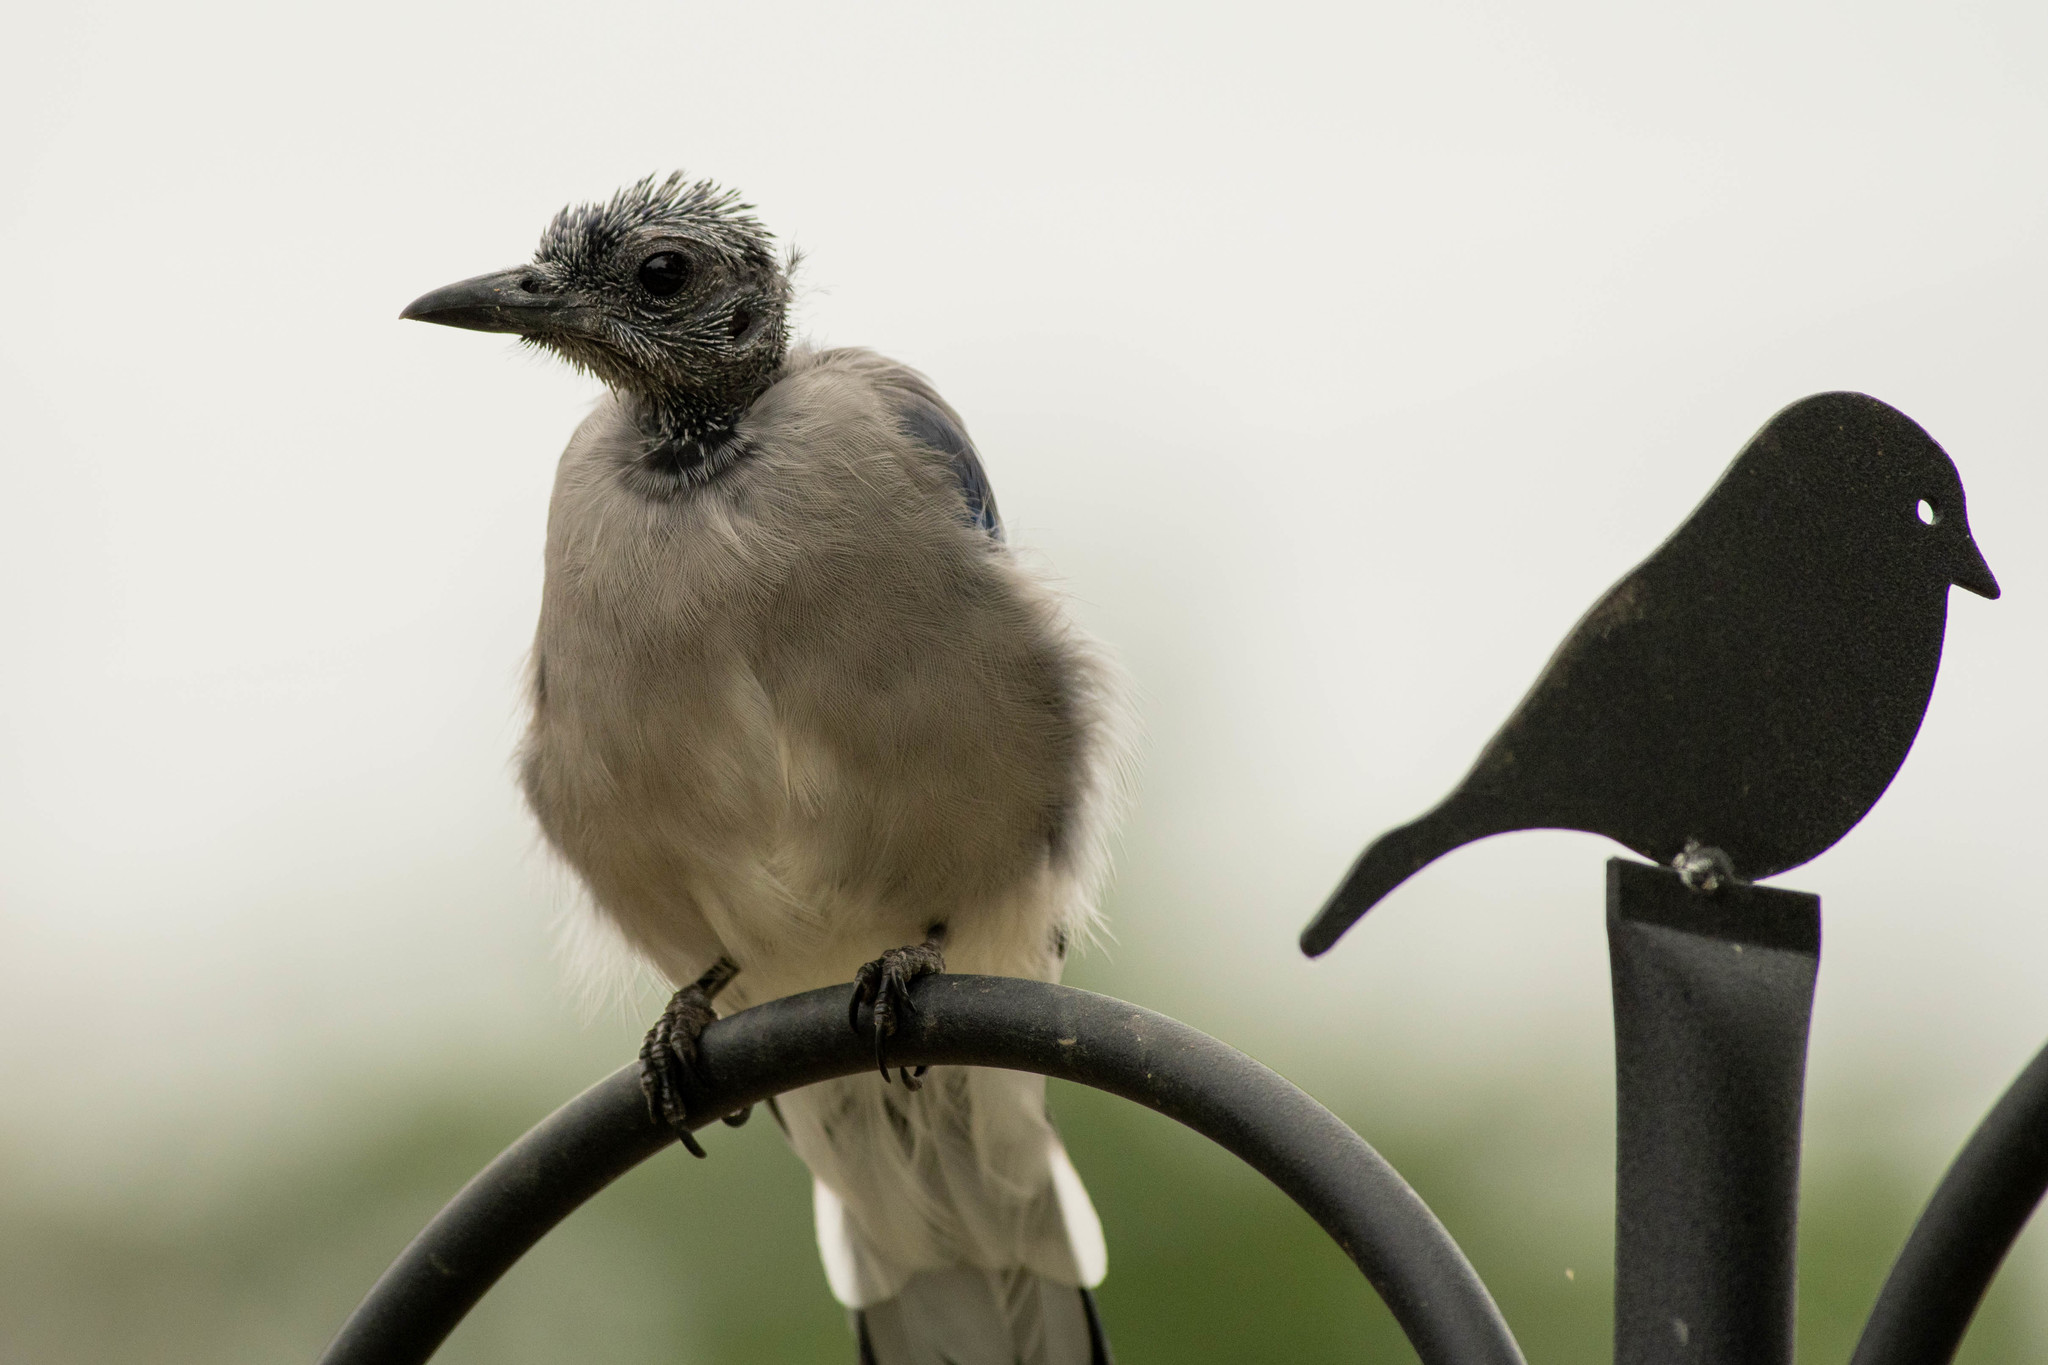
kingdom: Animalia
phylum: Chordata
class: Aves
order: Passeriformes
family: Corvidae
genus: Cyanocitta
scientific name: Cyanocitta cristata
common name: Blue jay
